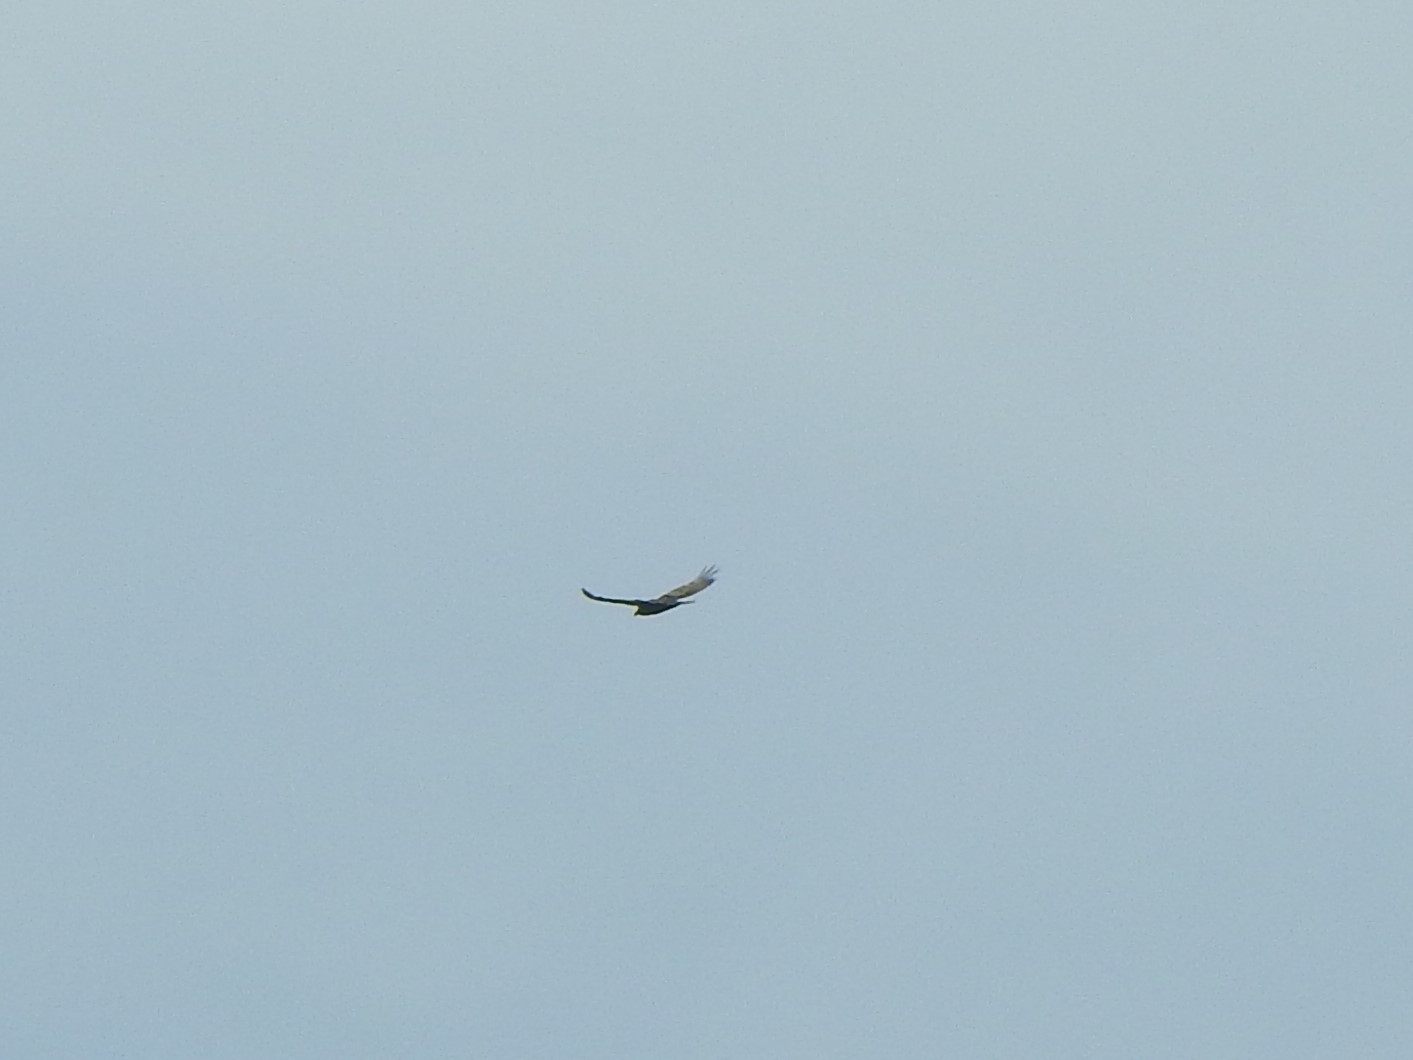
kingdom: Animalia
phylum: Chordata
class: Aves
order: Accipitriformes
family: Cathartidae
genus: Cathartes
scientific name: Cathartes aura
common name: Turkey vulture
